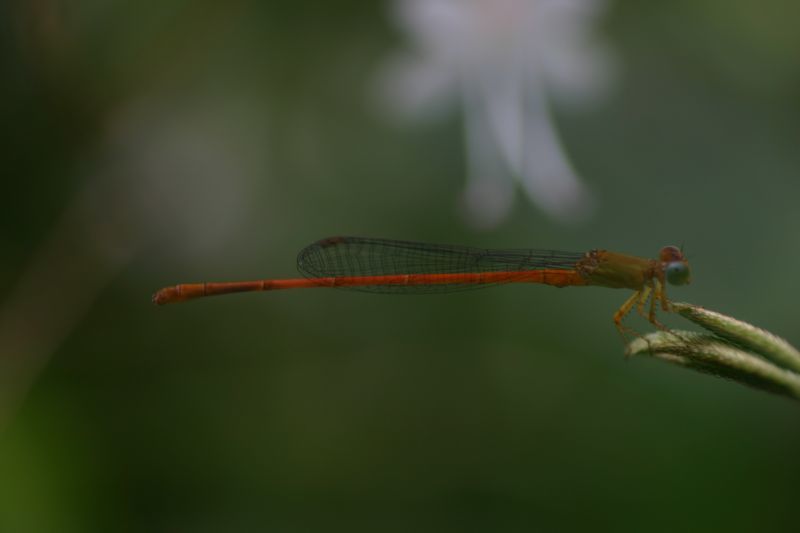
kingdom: Animalia
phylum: Arthropoda
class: Insecta
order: Odonata
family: Coenagrionidae
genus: Ceriagrion
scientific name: Ceriagrion olivaceum
